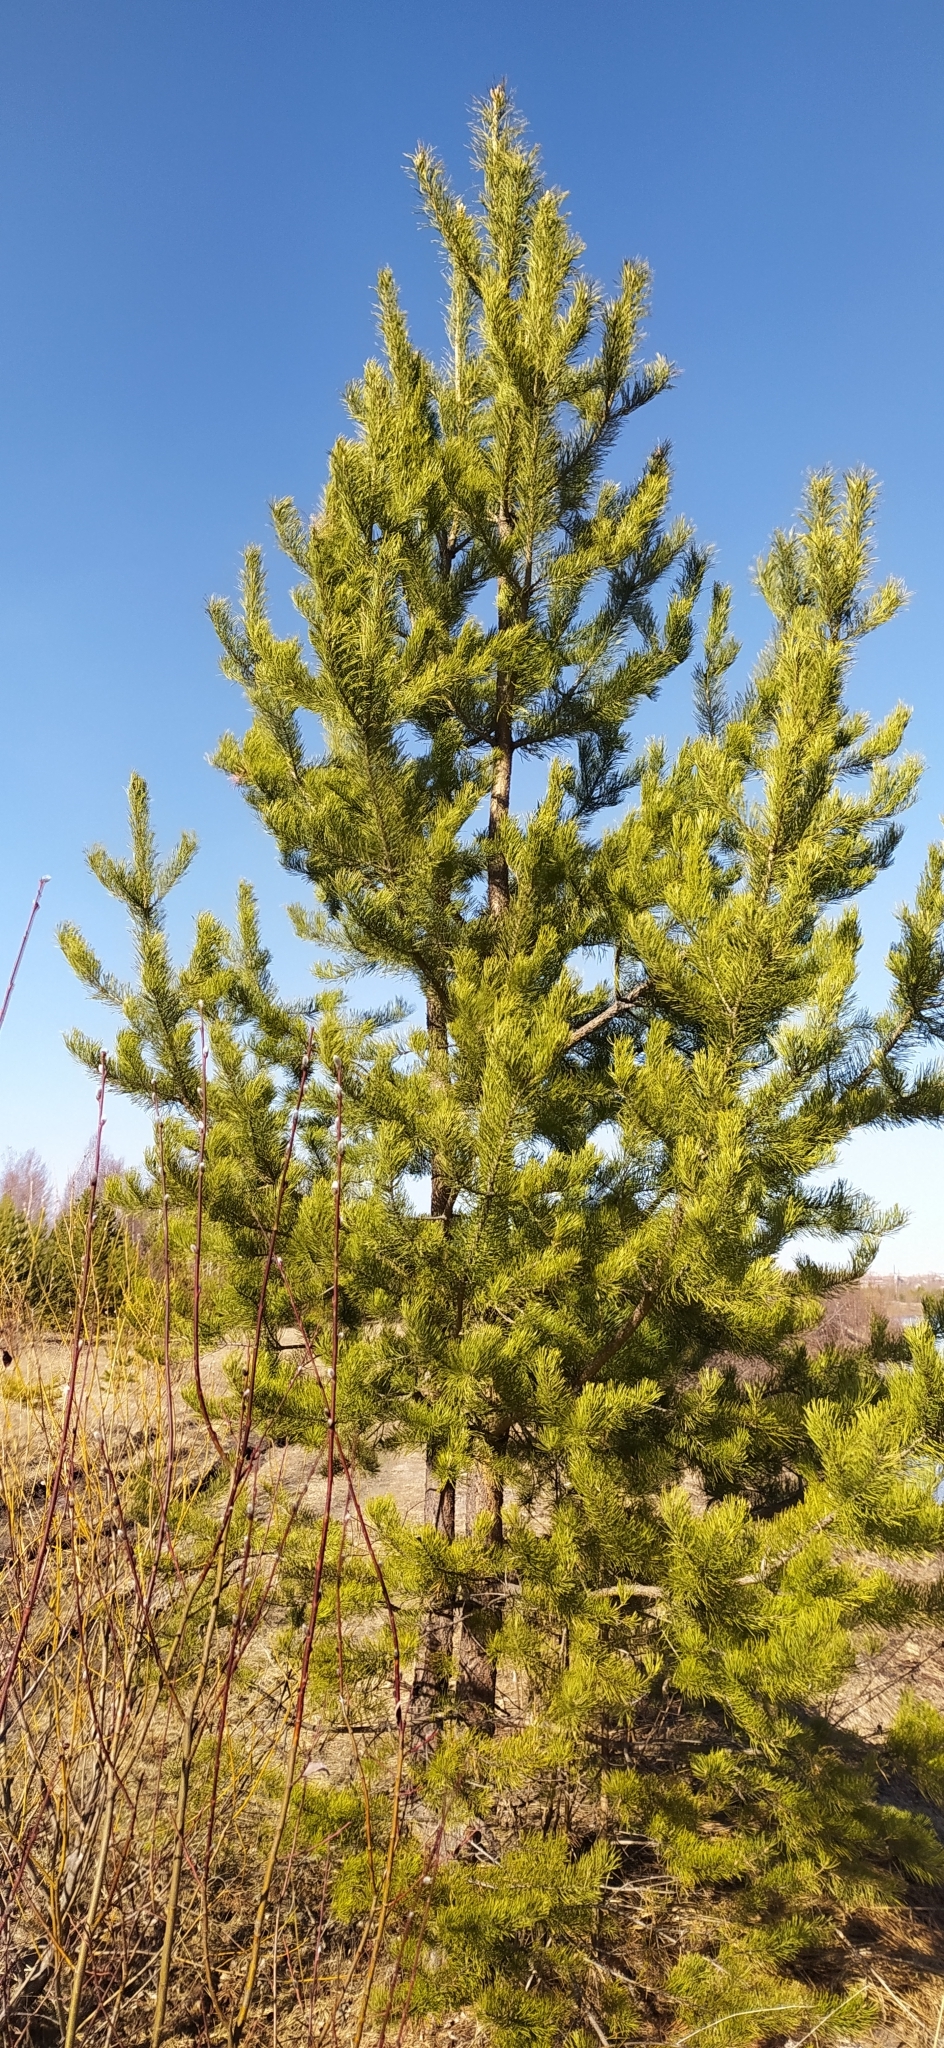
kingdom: Plantae
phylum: Tracheophyta
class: Pinopsida
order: Pinales
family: Pinaceae
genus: Pinus
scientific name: Pinus sylvestris
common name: Scots pine
